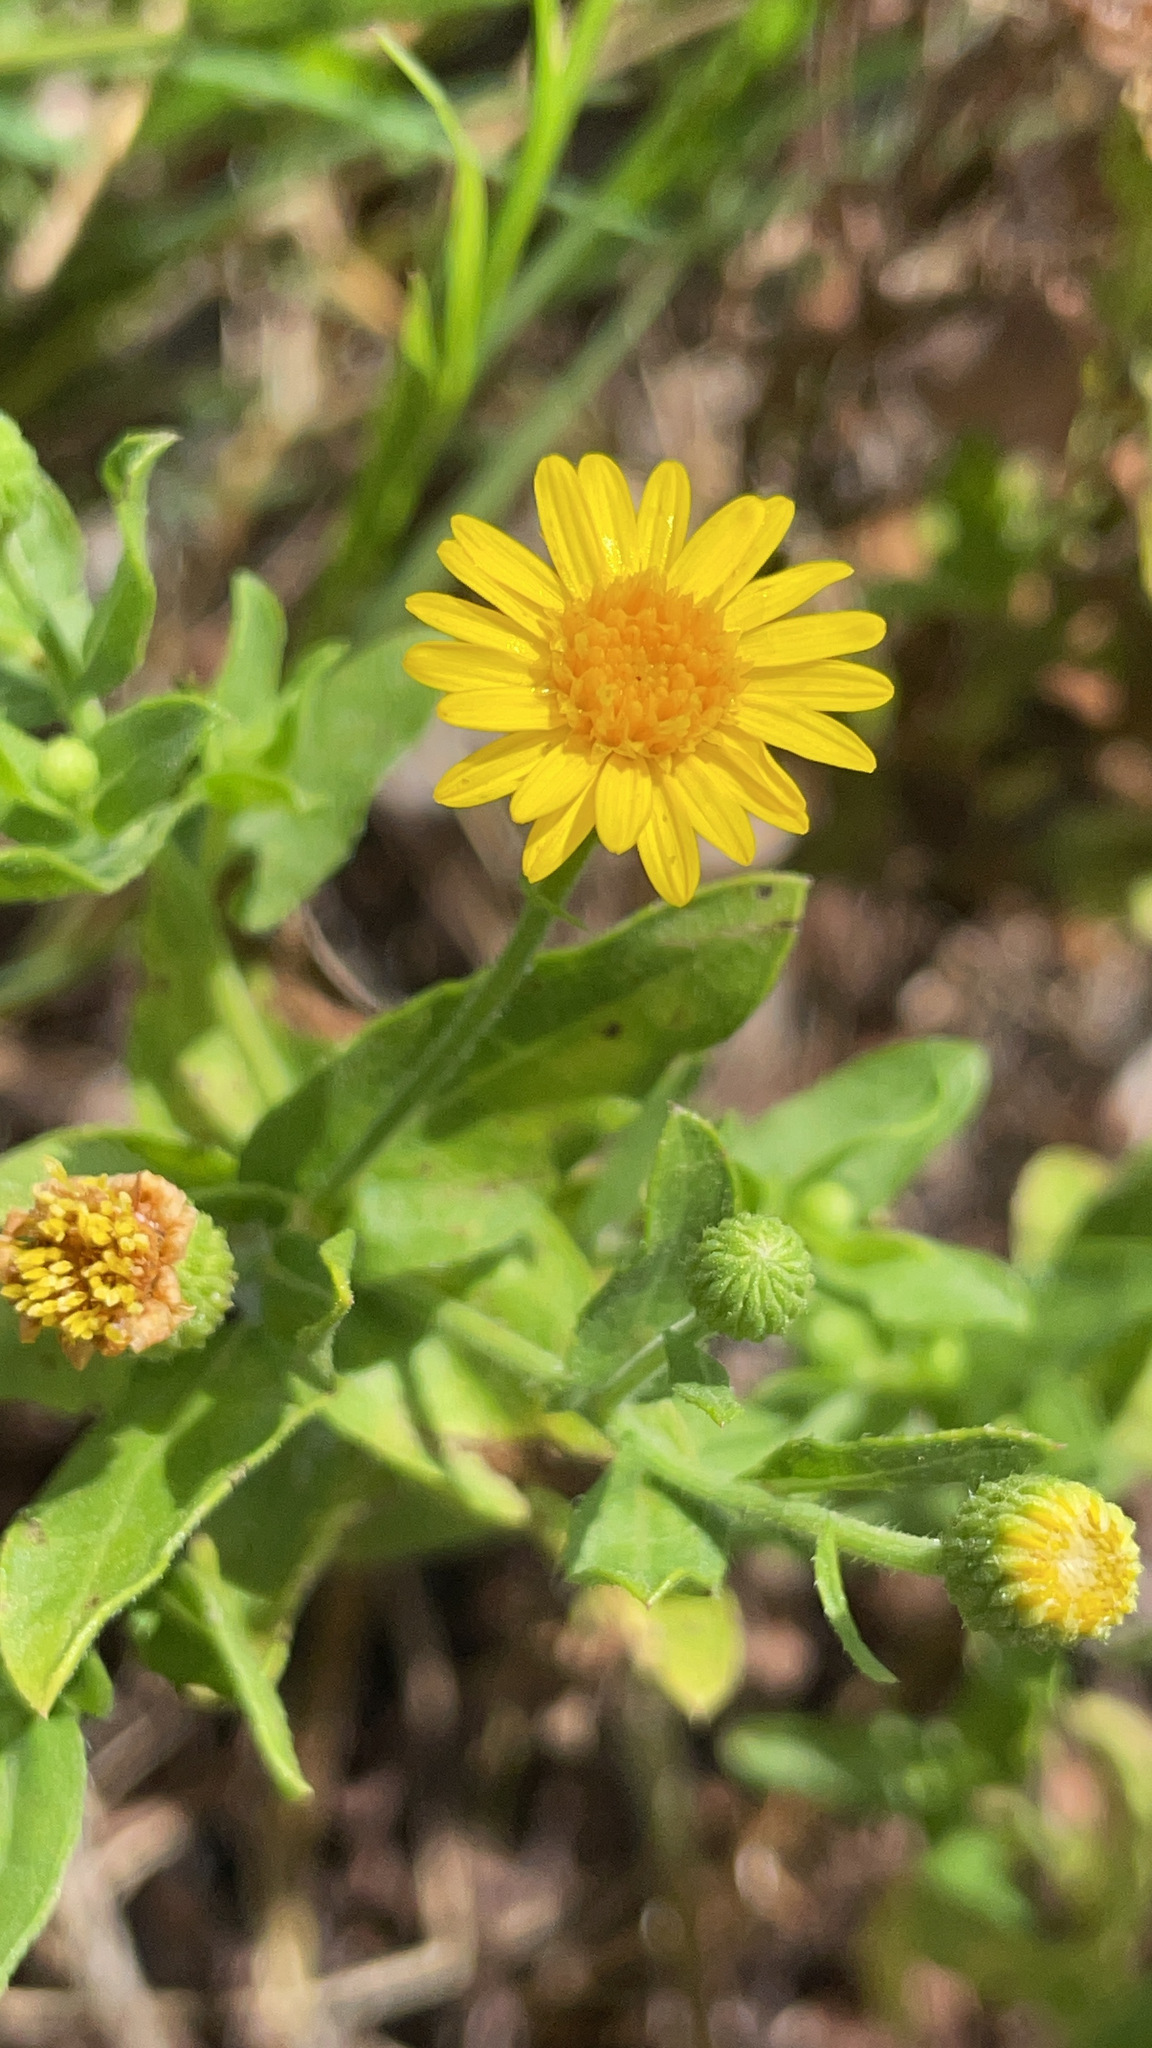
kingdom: Plantae
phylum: Tracheophyta
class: Magnoliopsida
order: Asterales
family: Asteraceae
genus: Heterotheca
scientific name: Heterotheca subaxillaris
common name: Camphorweed
